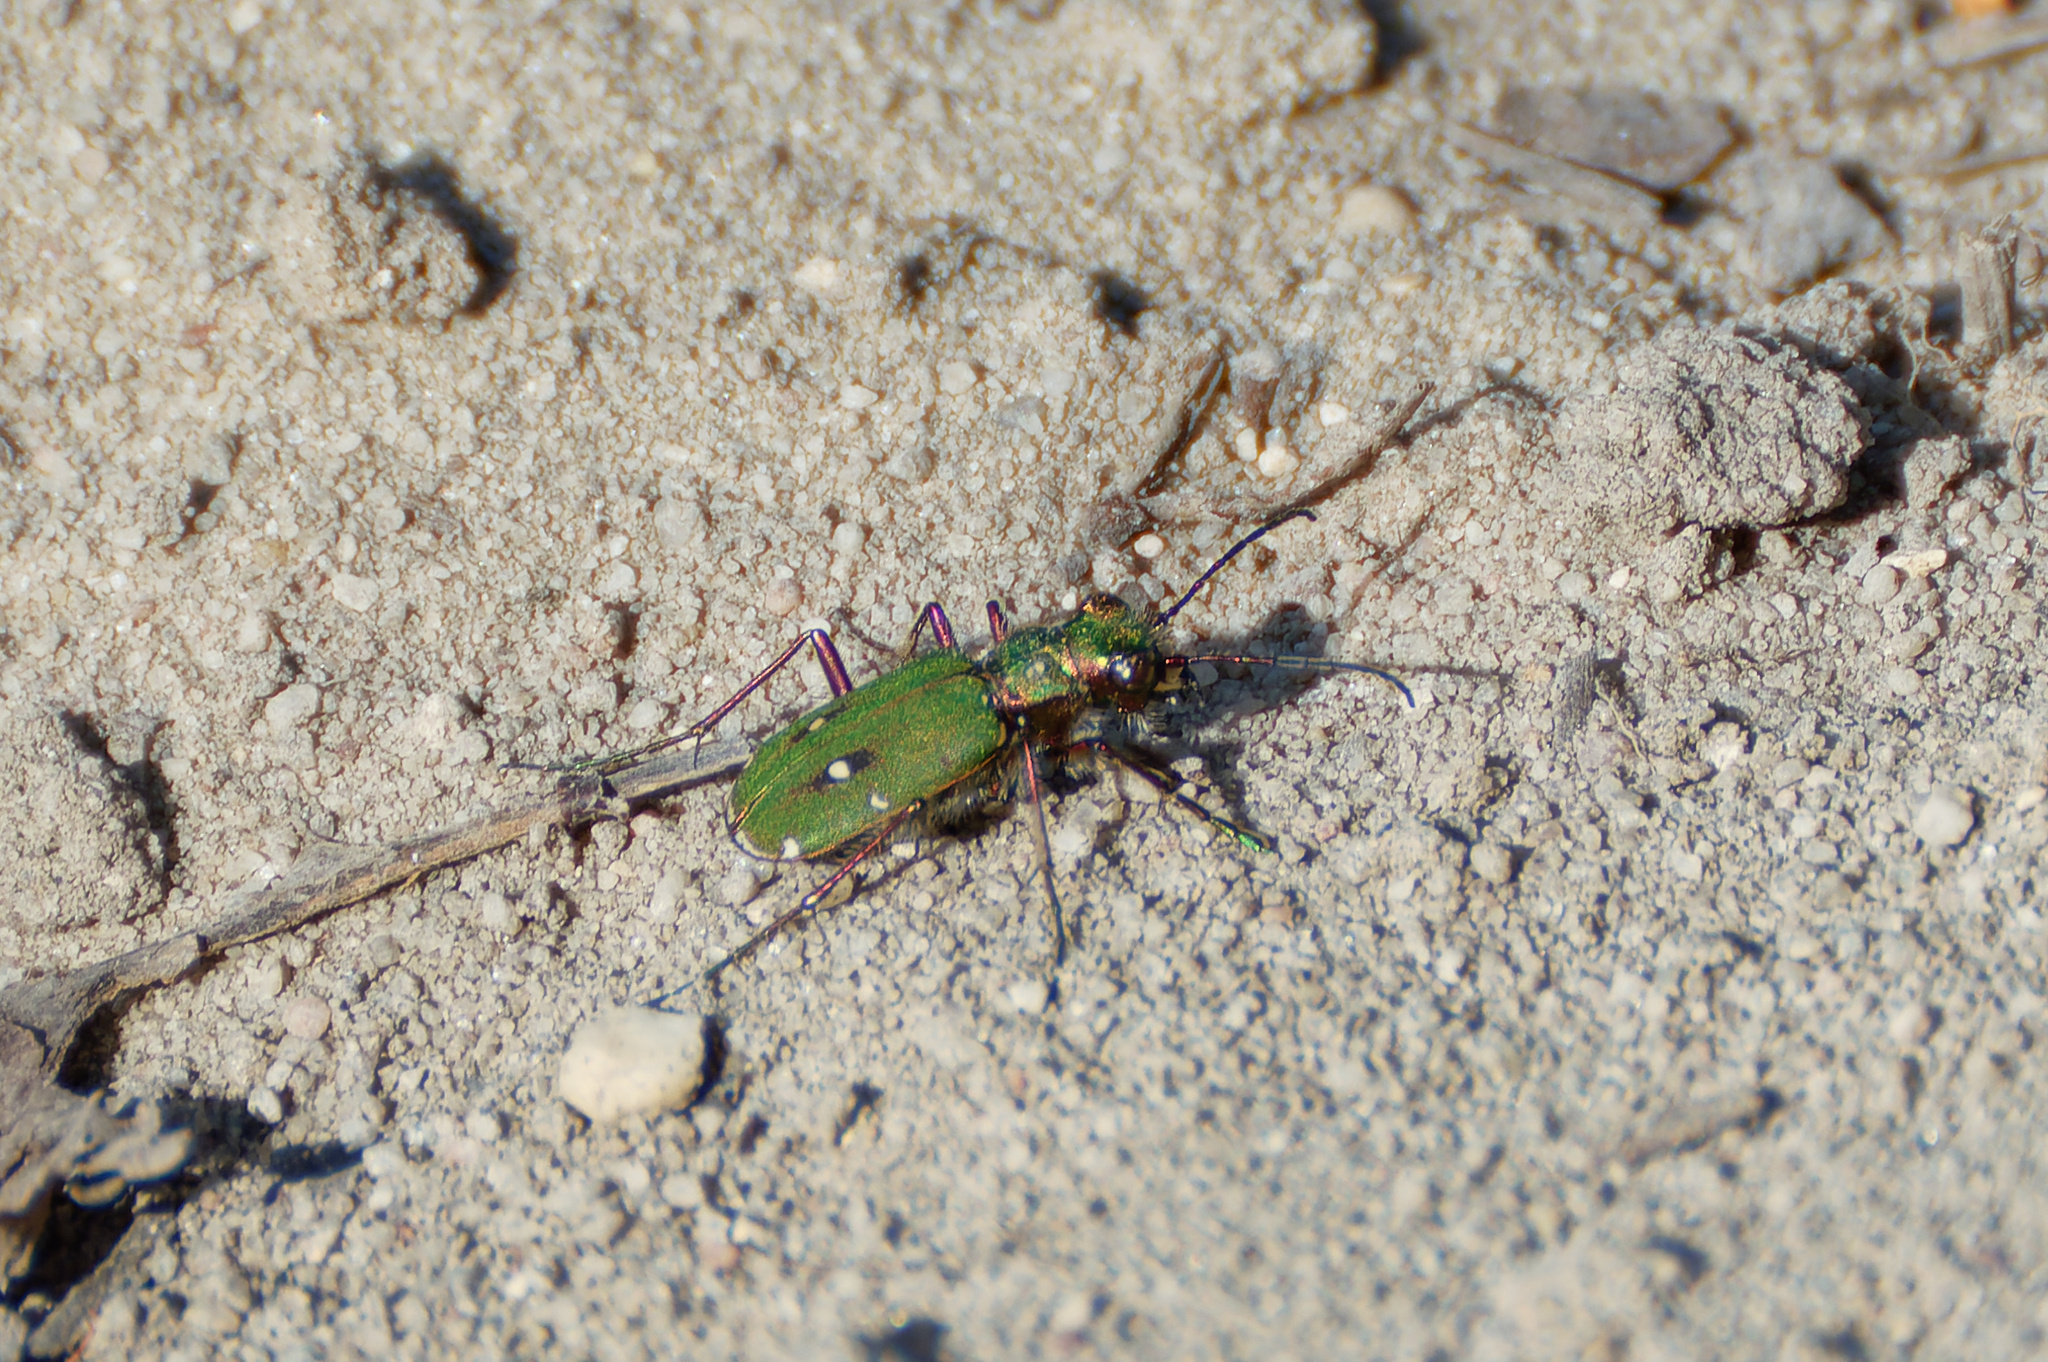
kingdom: Animalia
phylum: Arthropoda
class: Insecta
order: Coleoptera
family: Carabidae
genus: Cicindela
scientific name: Cicindela campestris
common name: Common tiger beetle
